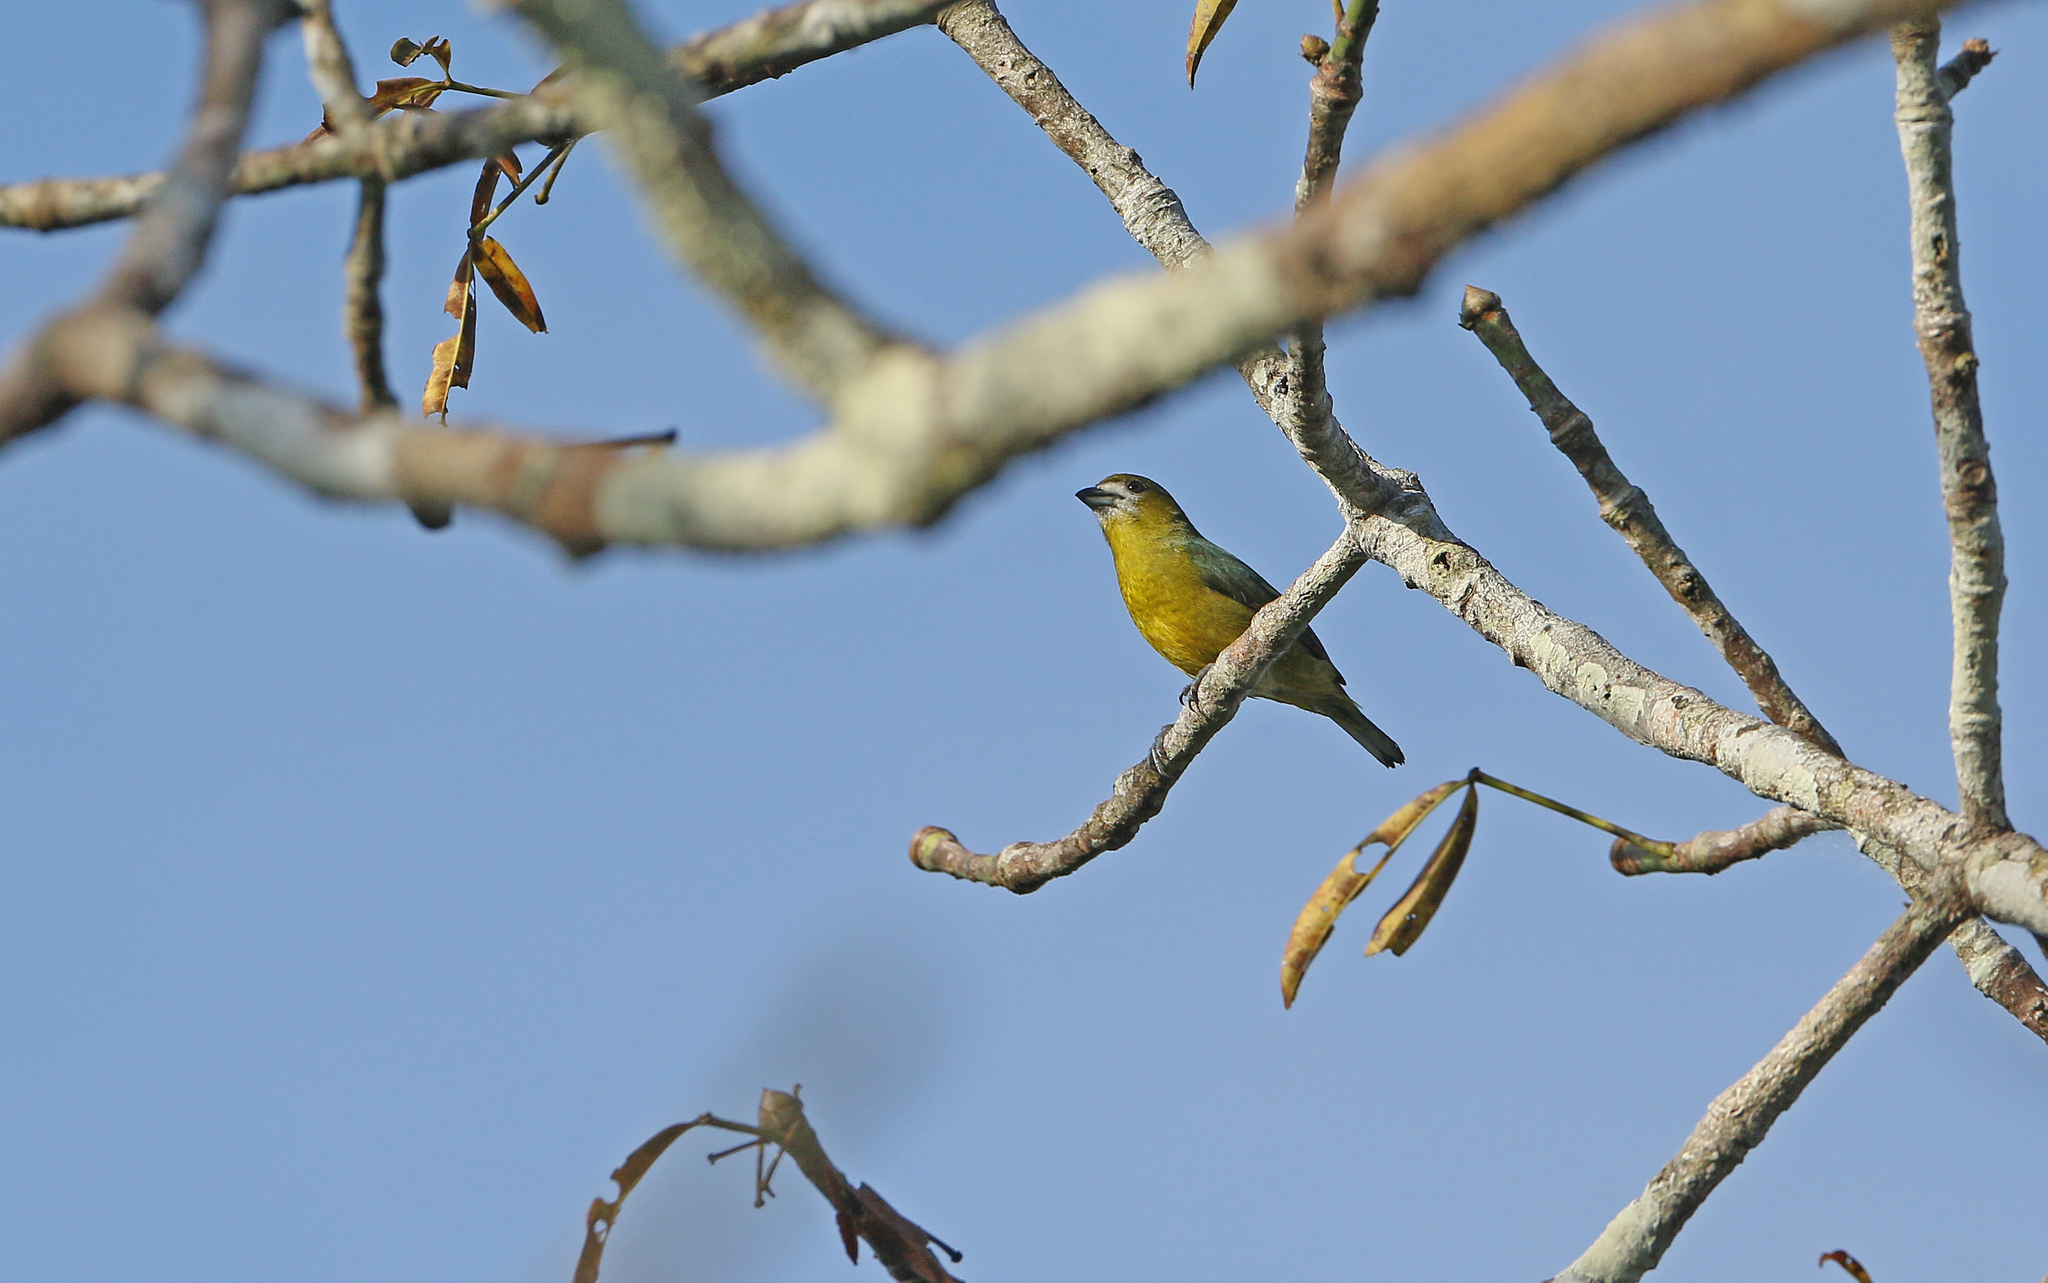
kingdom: Animalia
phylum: Chordata
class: Aves
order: Passeriformes
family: Fringillidae
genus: Euphonia
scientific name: Euphonia chrysopasta
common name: White-lored euphonia
